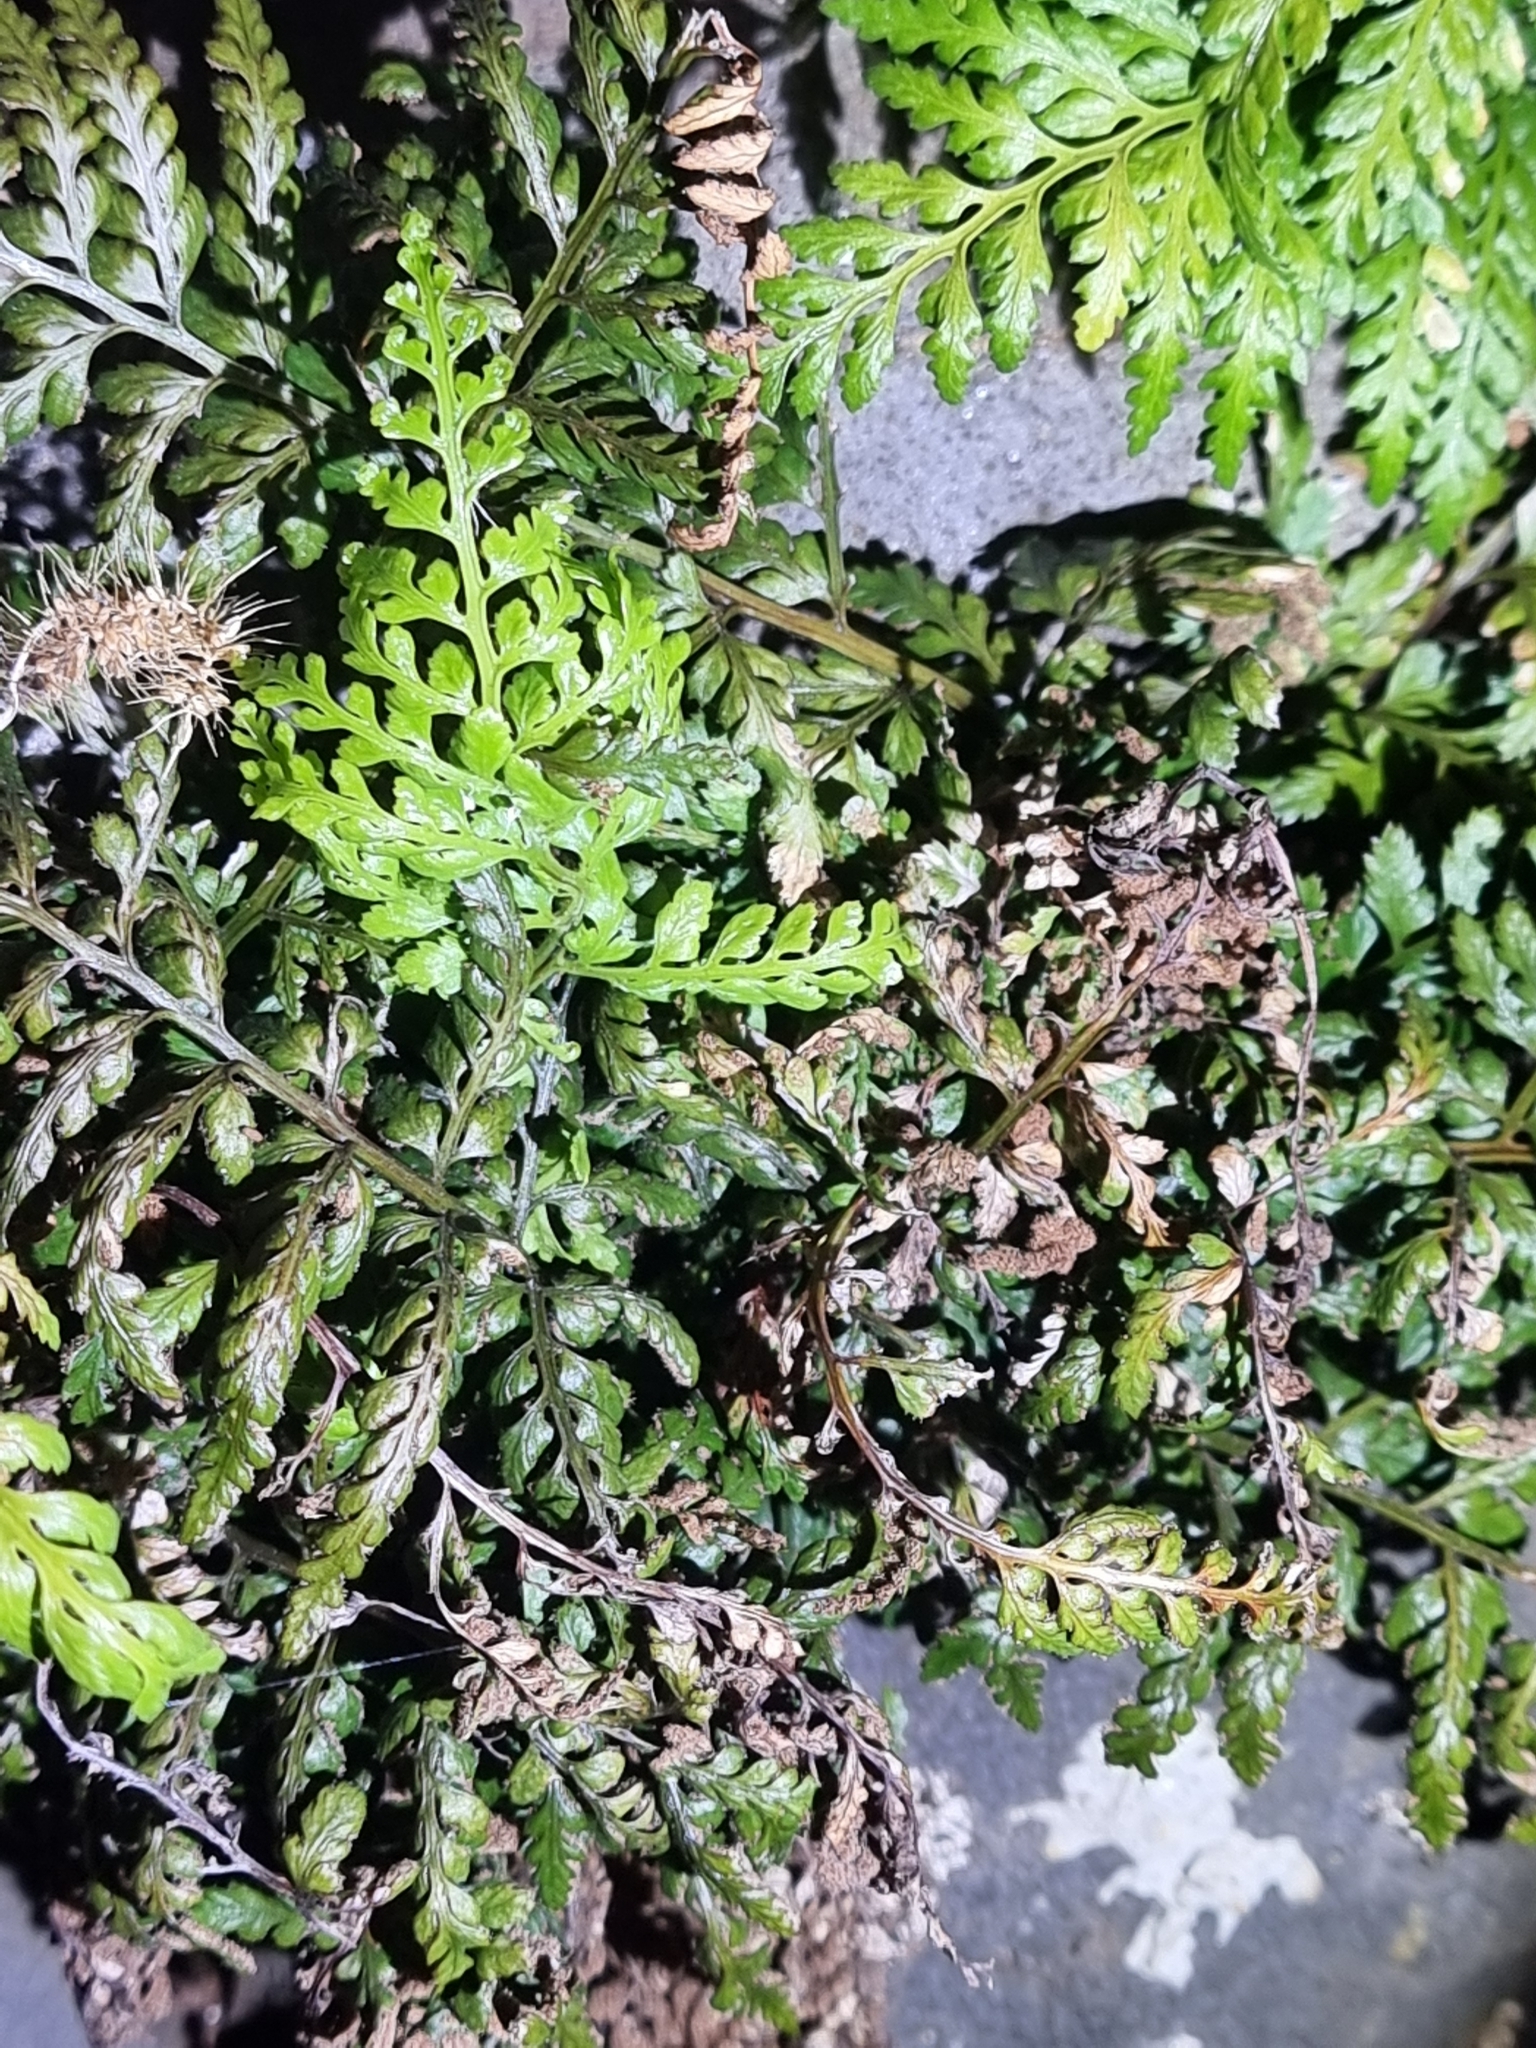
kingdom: Plantae
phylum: Tracheophyta
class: Polypodiopsida
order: Polypodiales
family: Aspleniaceae
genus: Asplenium
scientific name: Asplenium obovatum
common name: Lanceolate spleenwort
